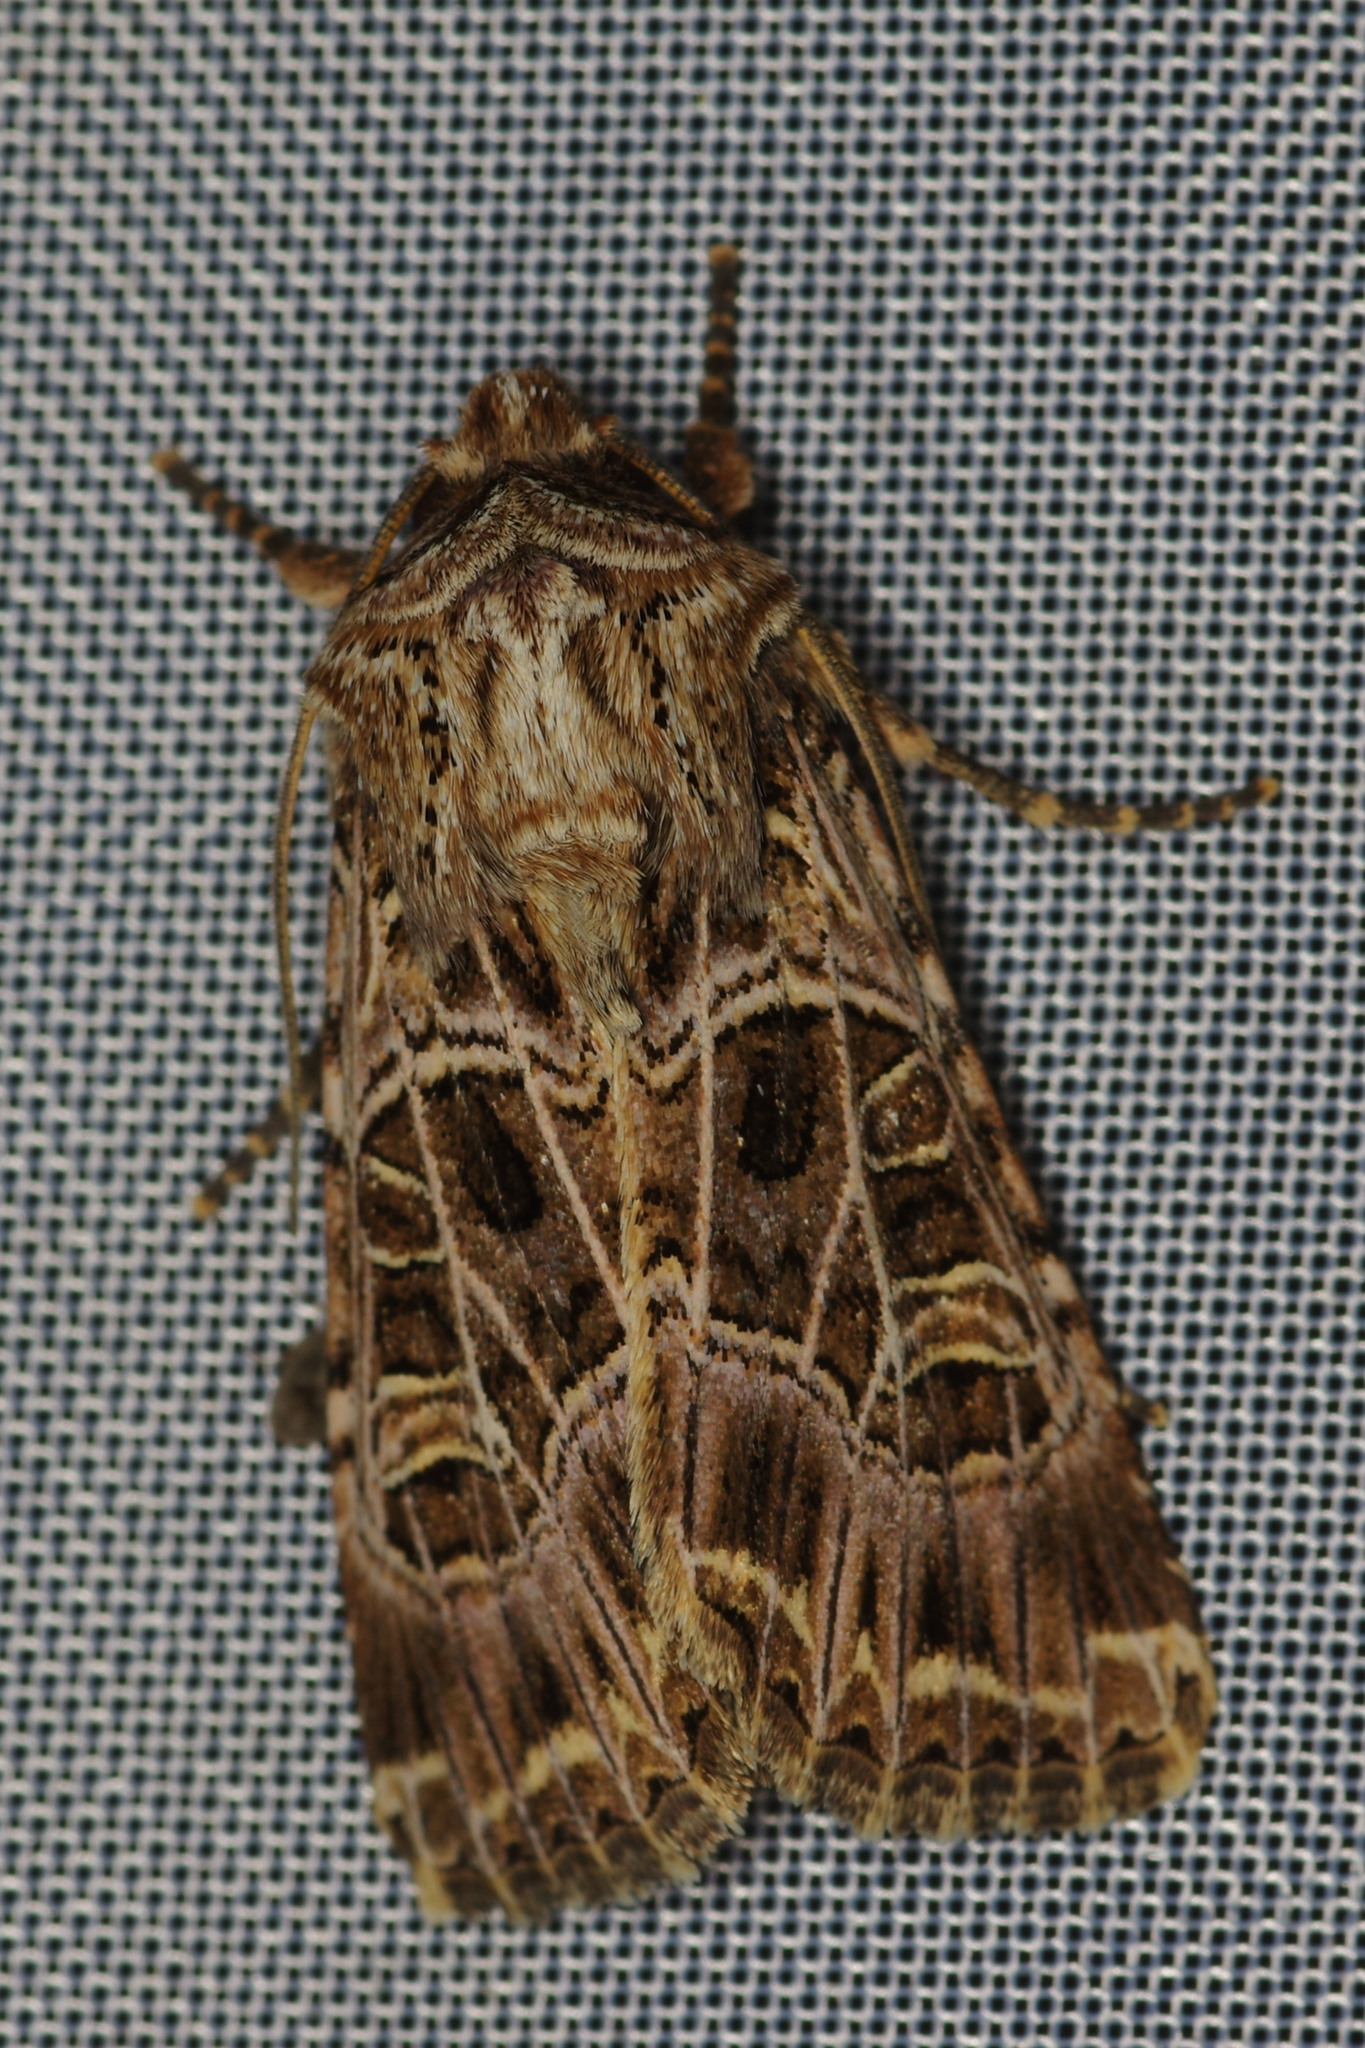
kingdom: Animalia
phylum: Arthropoda
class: Insecta
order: Lepidoptera
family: Noctuidae
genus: Sideridis
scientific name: Sideridis reticulata
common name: Bordered gothic
